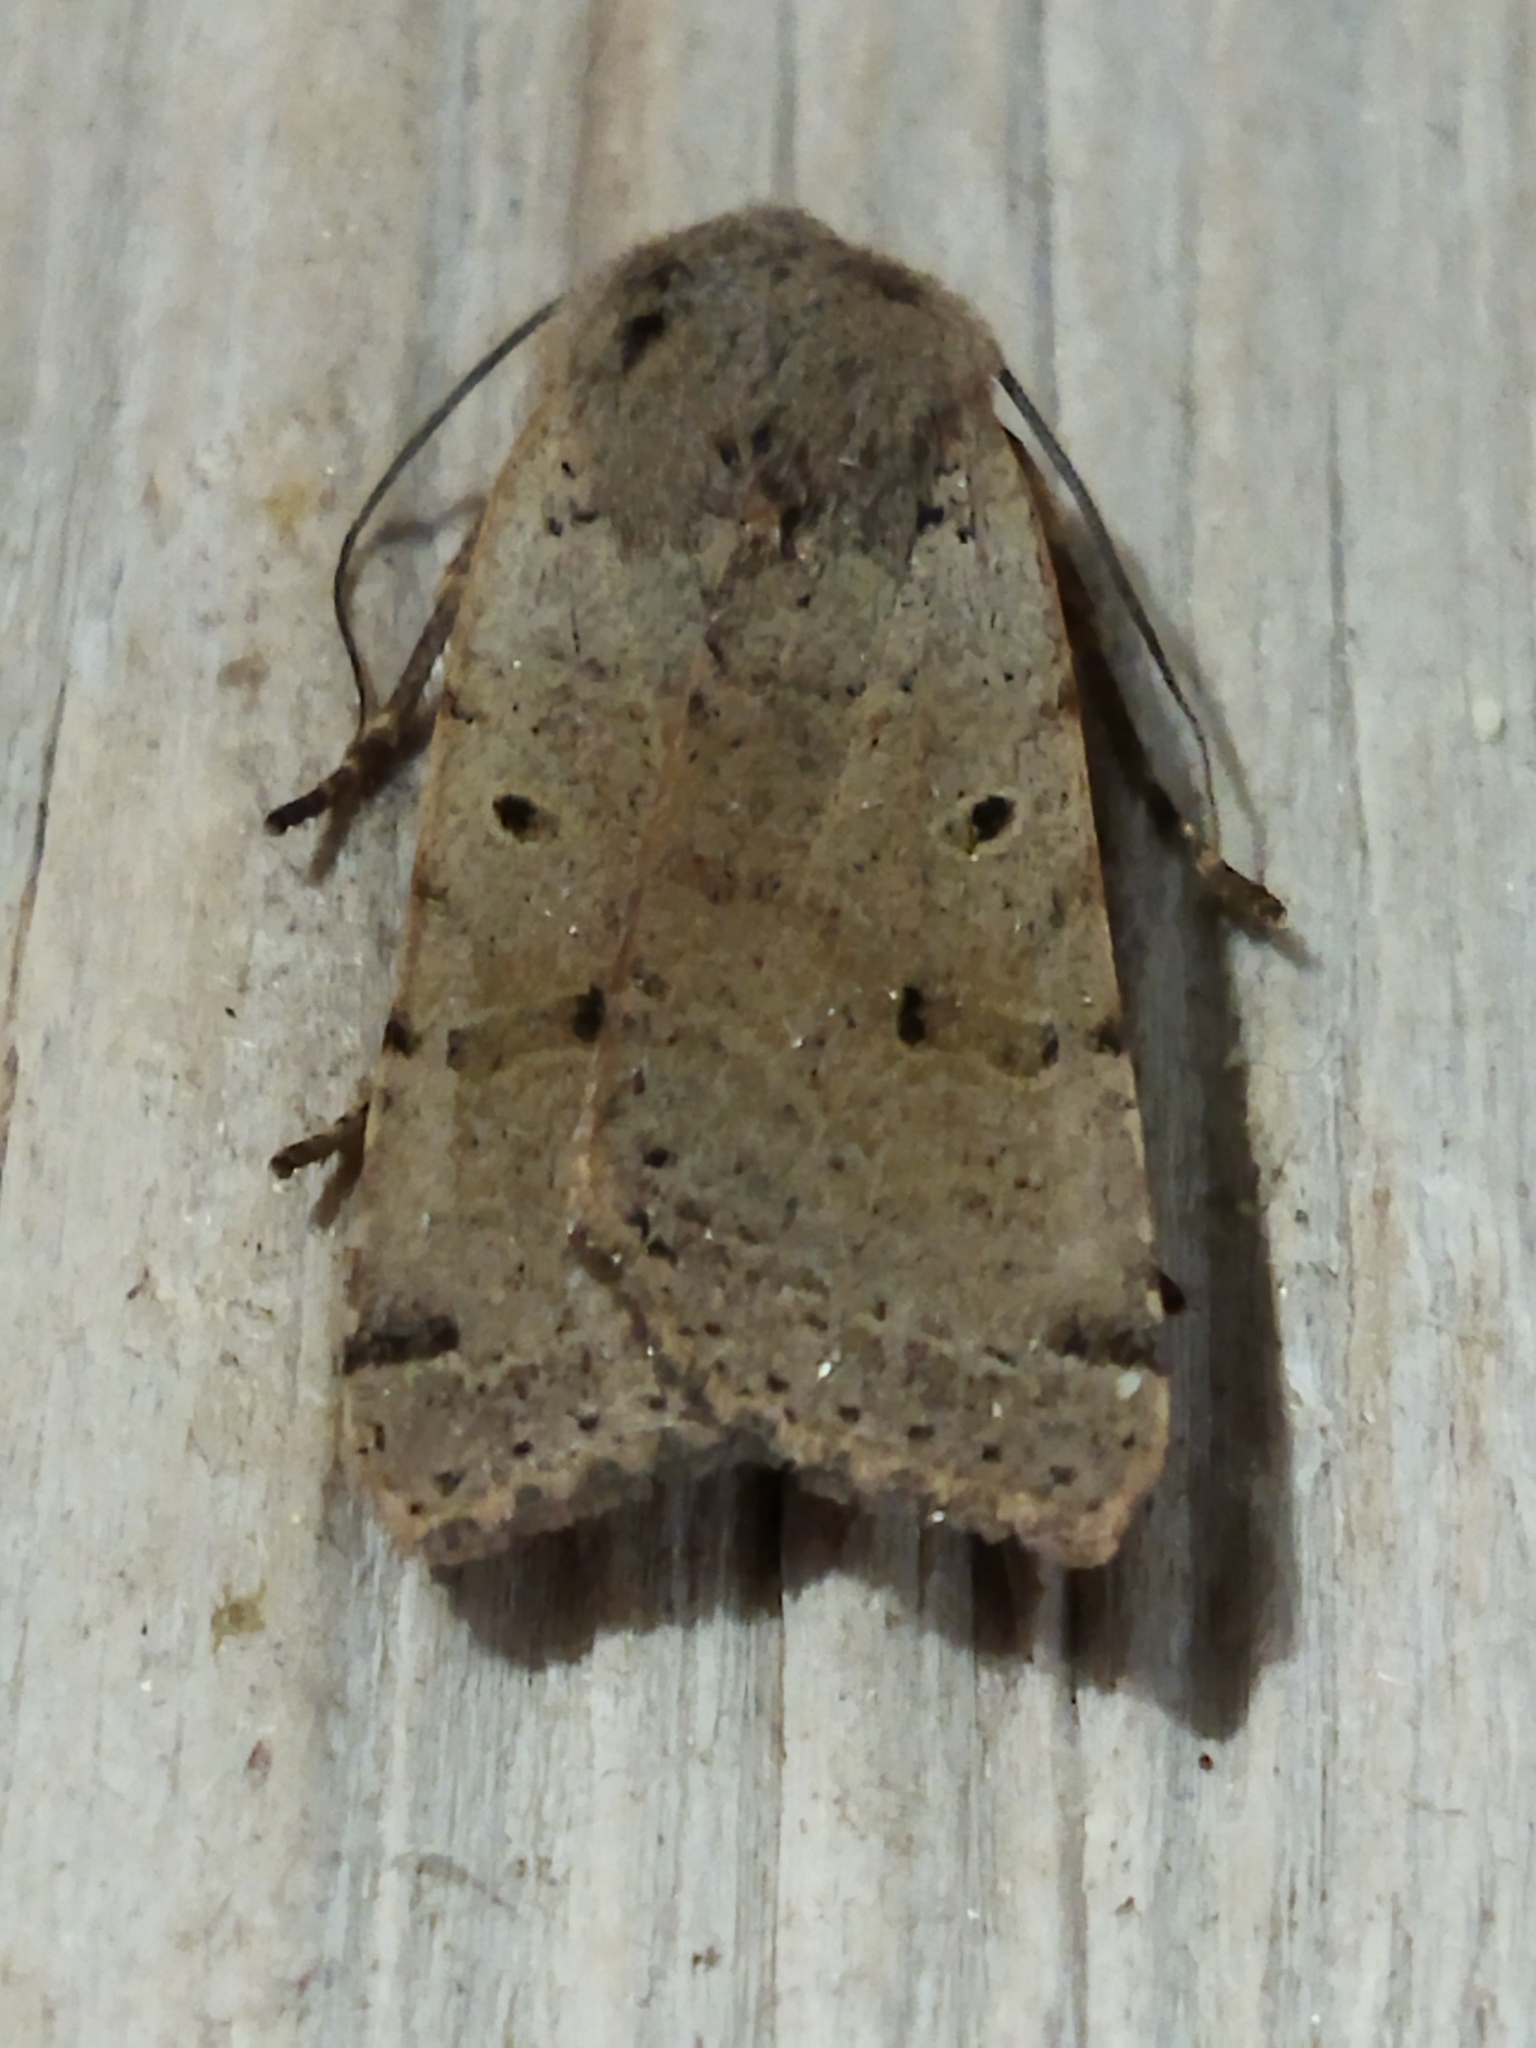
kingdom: Animalia
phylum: Arthropoda
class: Insecta
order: Lepidoptera
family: Noctuidae
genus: Agrochola
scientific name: Agrochola lychnidis
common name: Beaded chestnut
